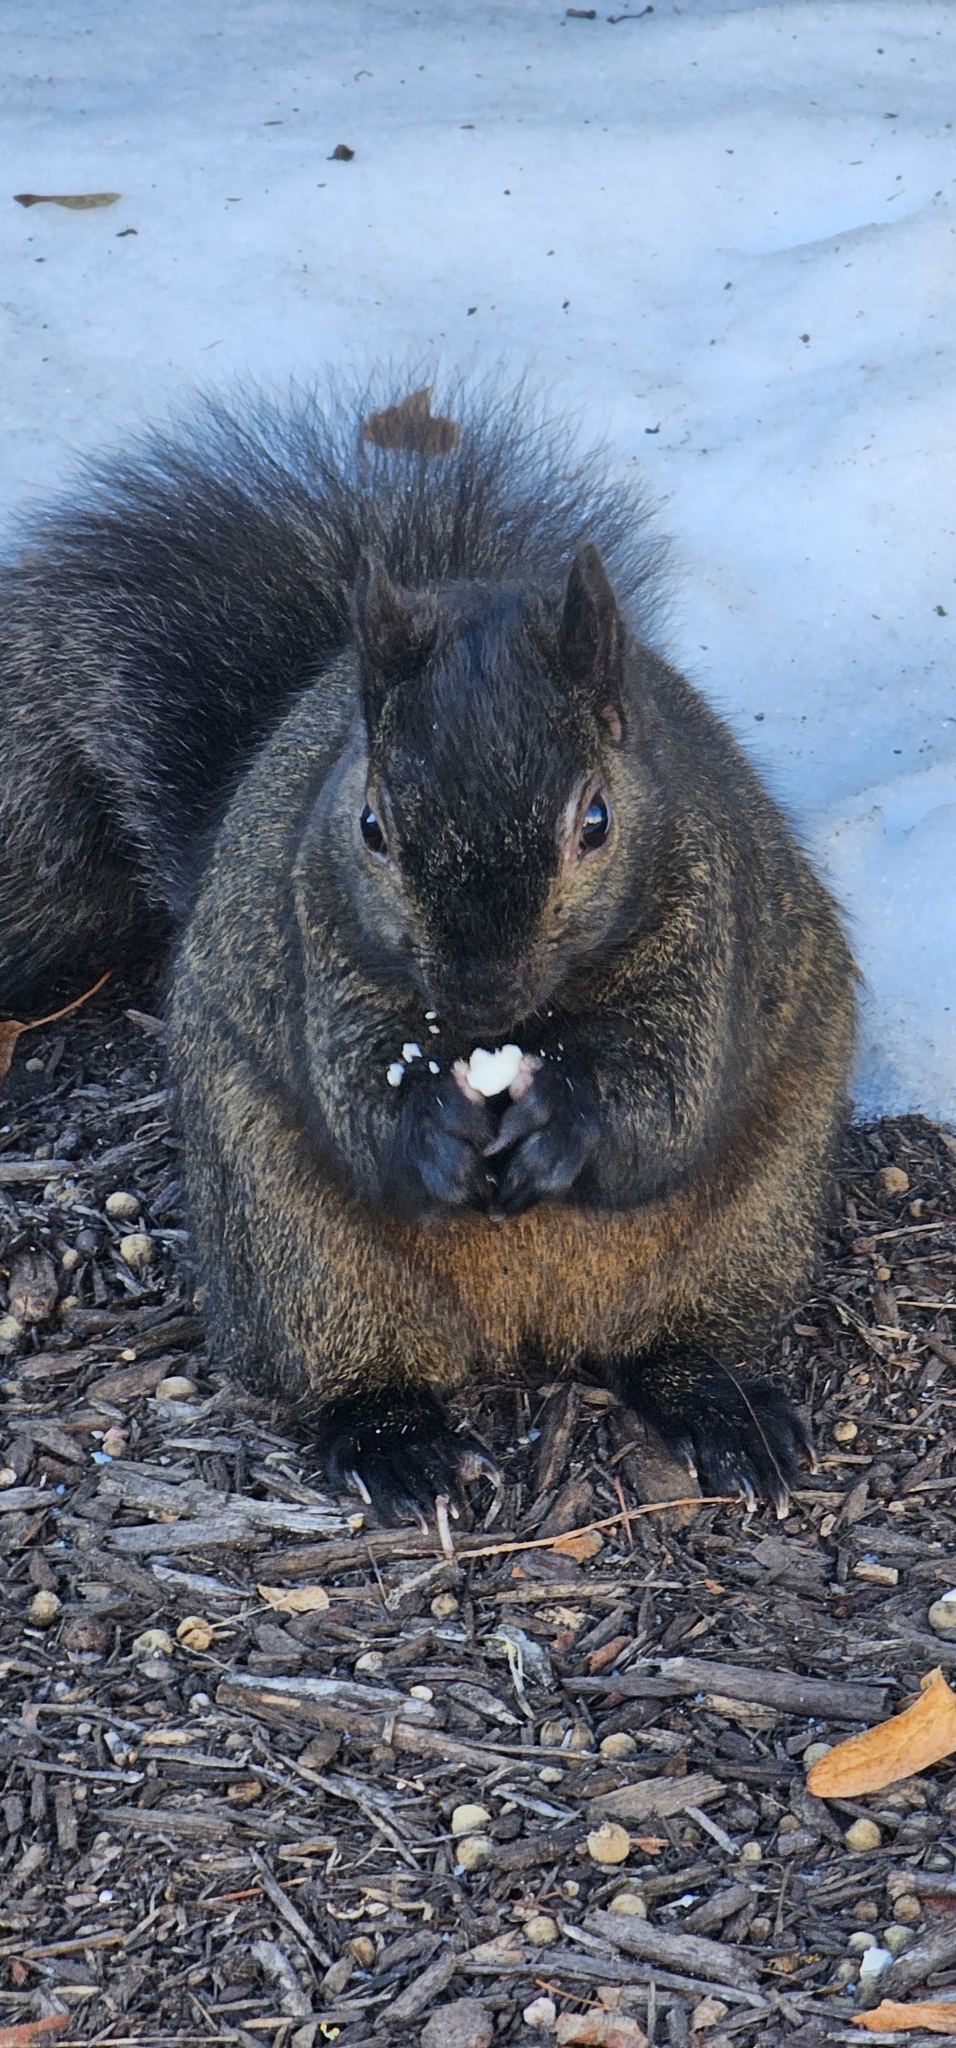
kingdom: Animalia
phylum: Chordata
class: Mammalia
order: Rodentia
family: Sciuridae
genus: Sciurus
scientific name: Sciurus carolinensis
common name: Eastern gray squirrel
